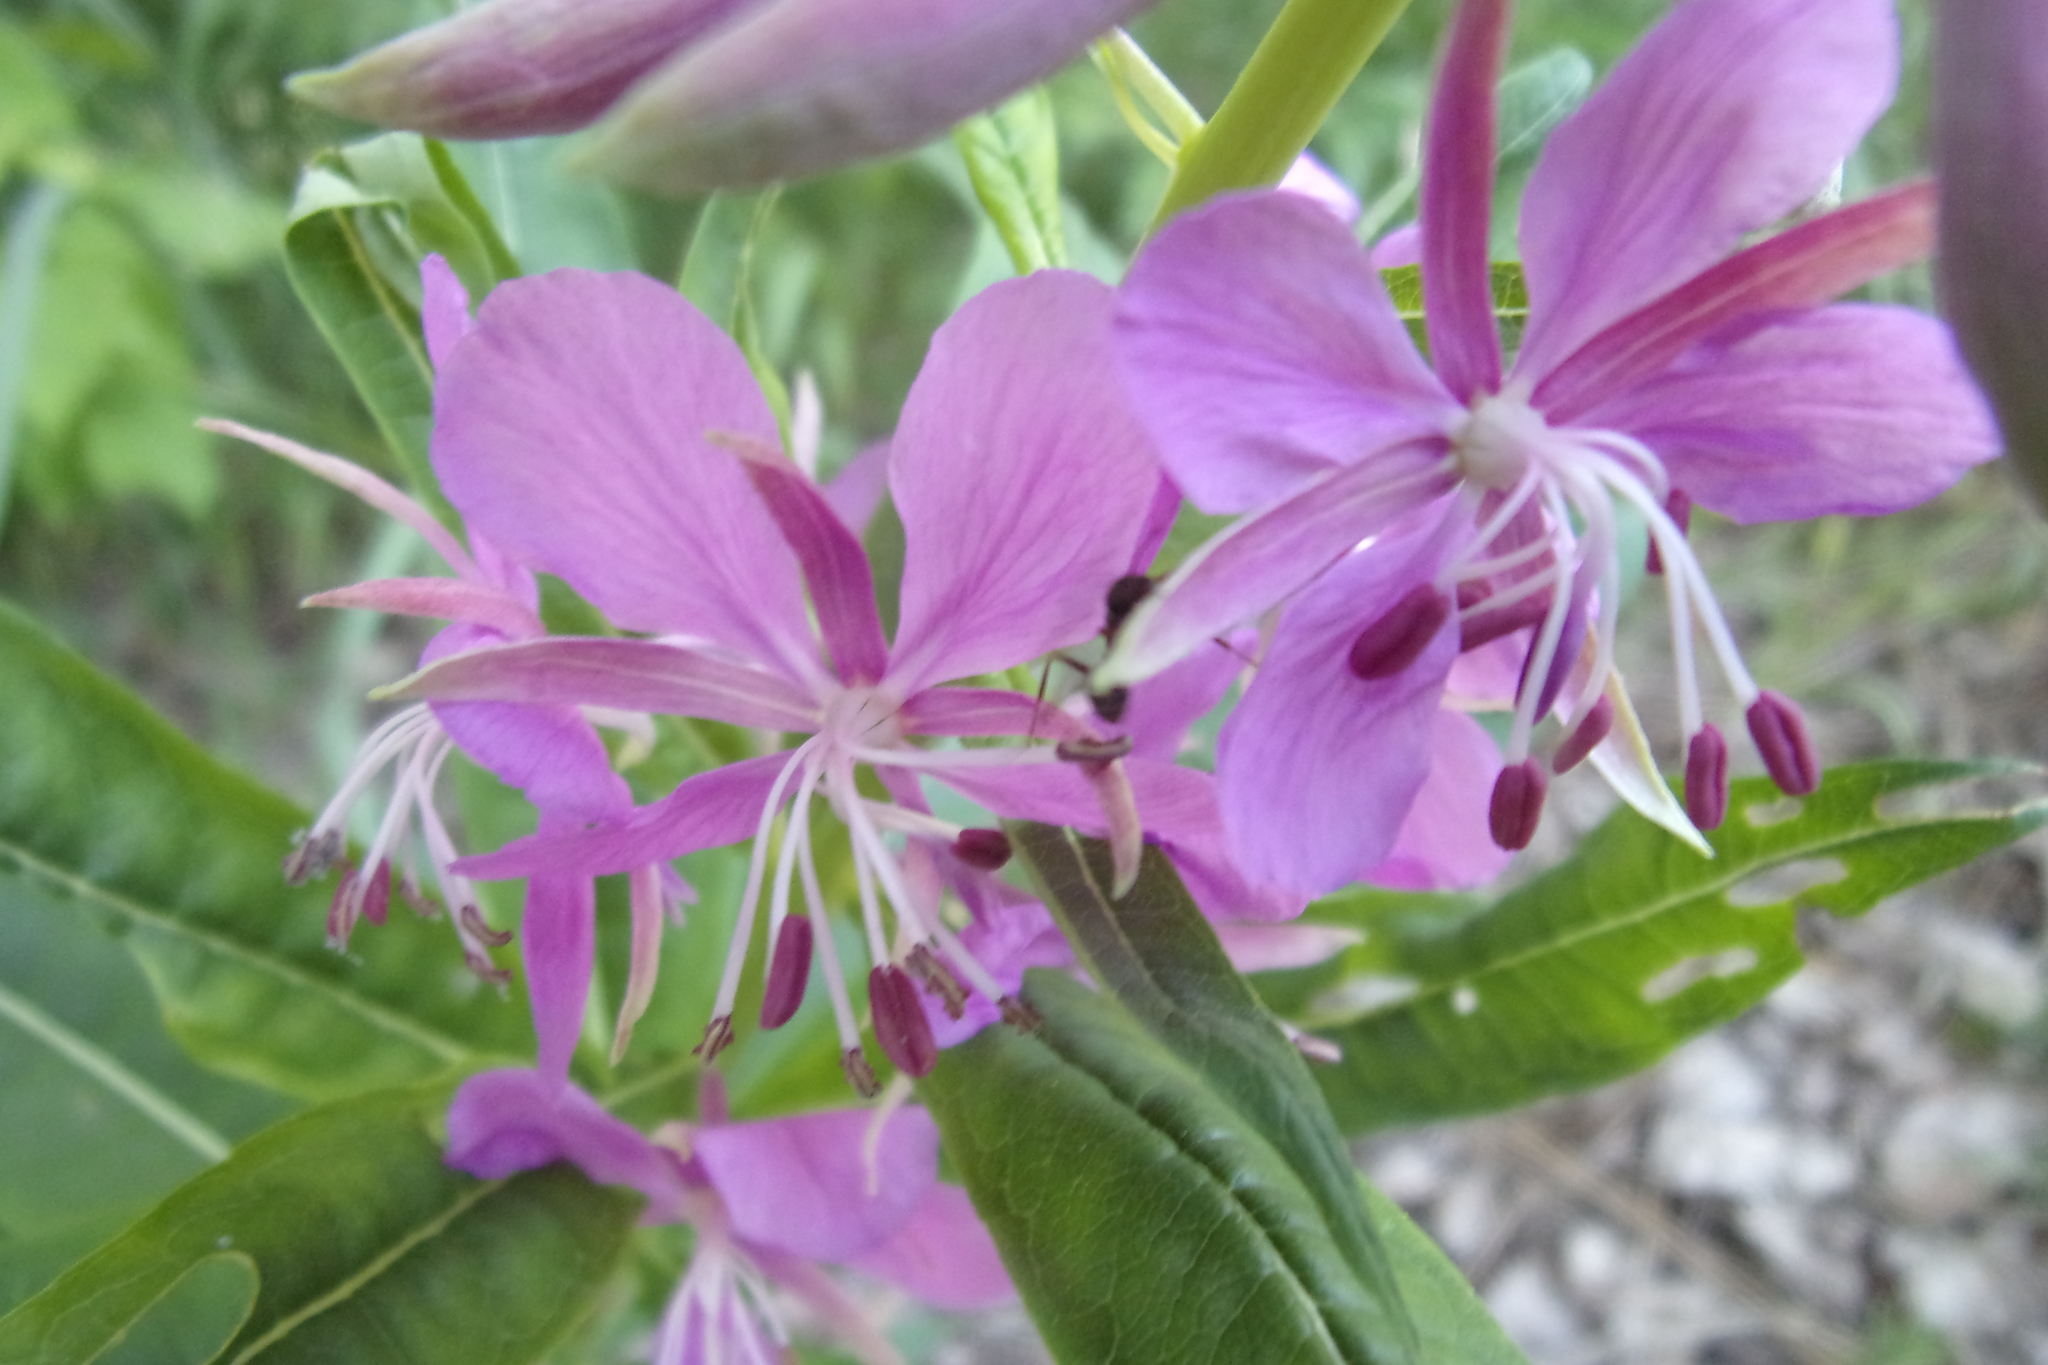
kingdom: Plantae
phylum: Tracheophyta
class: Magnoliopsida
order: Myrtales
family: Onagraceae
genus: Chamaenerion
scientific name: Chamaenerion angustifolium
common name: Fireweed
